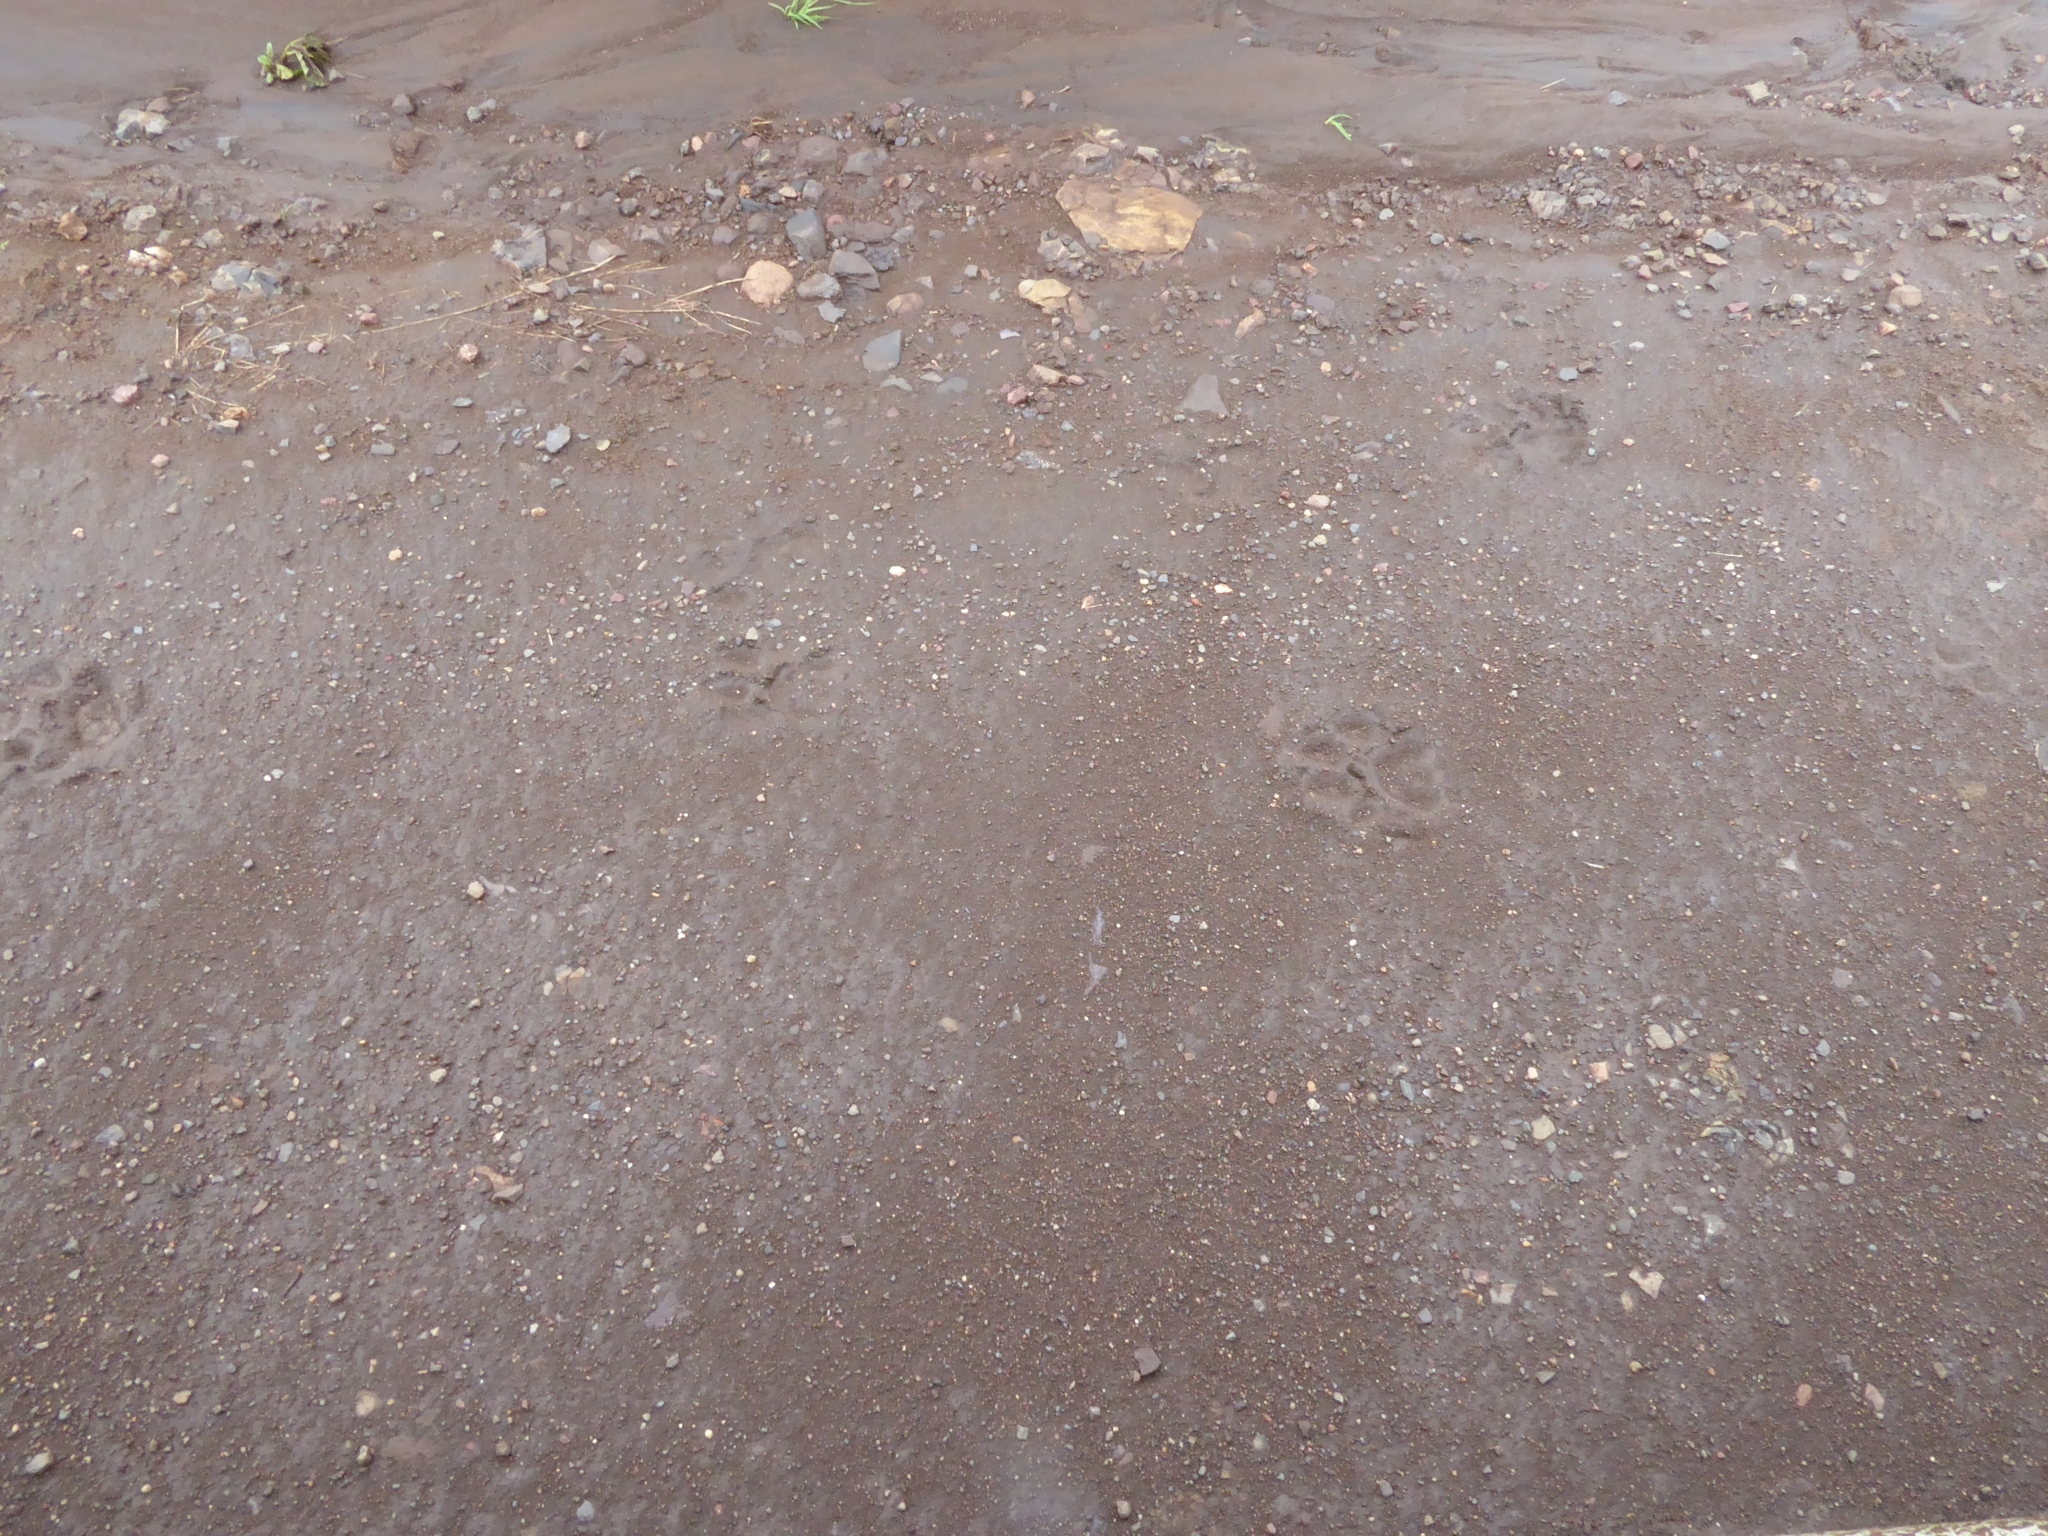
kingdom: Animalia
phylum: Chordata
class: Mammalia
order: Carnivora
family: Felidae
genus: Panthera
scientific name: Panthera leo
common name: Lion
